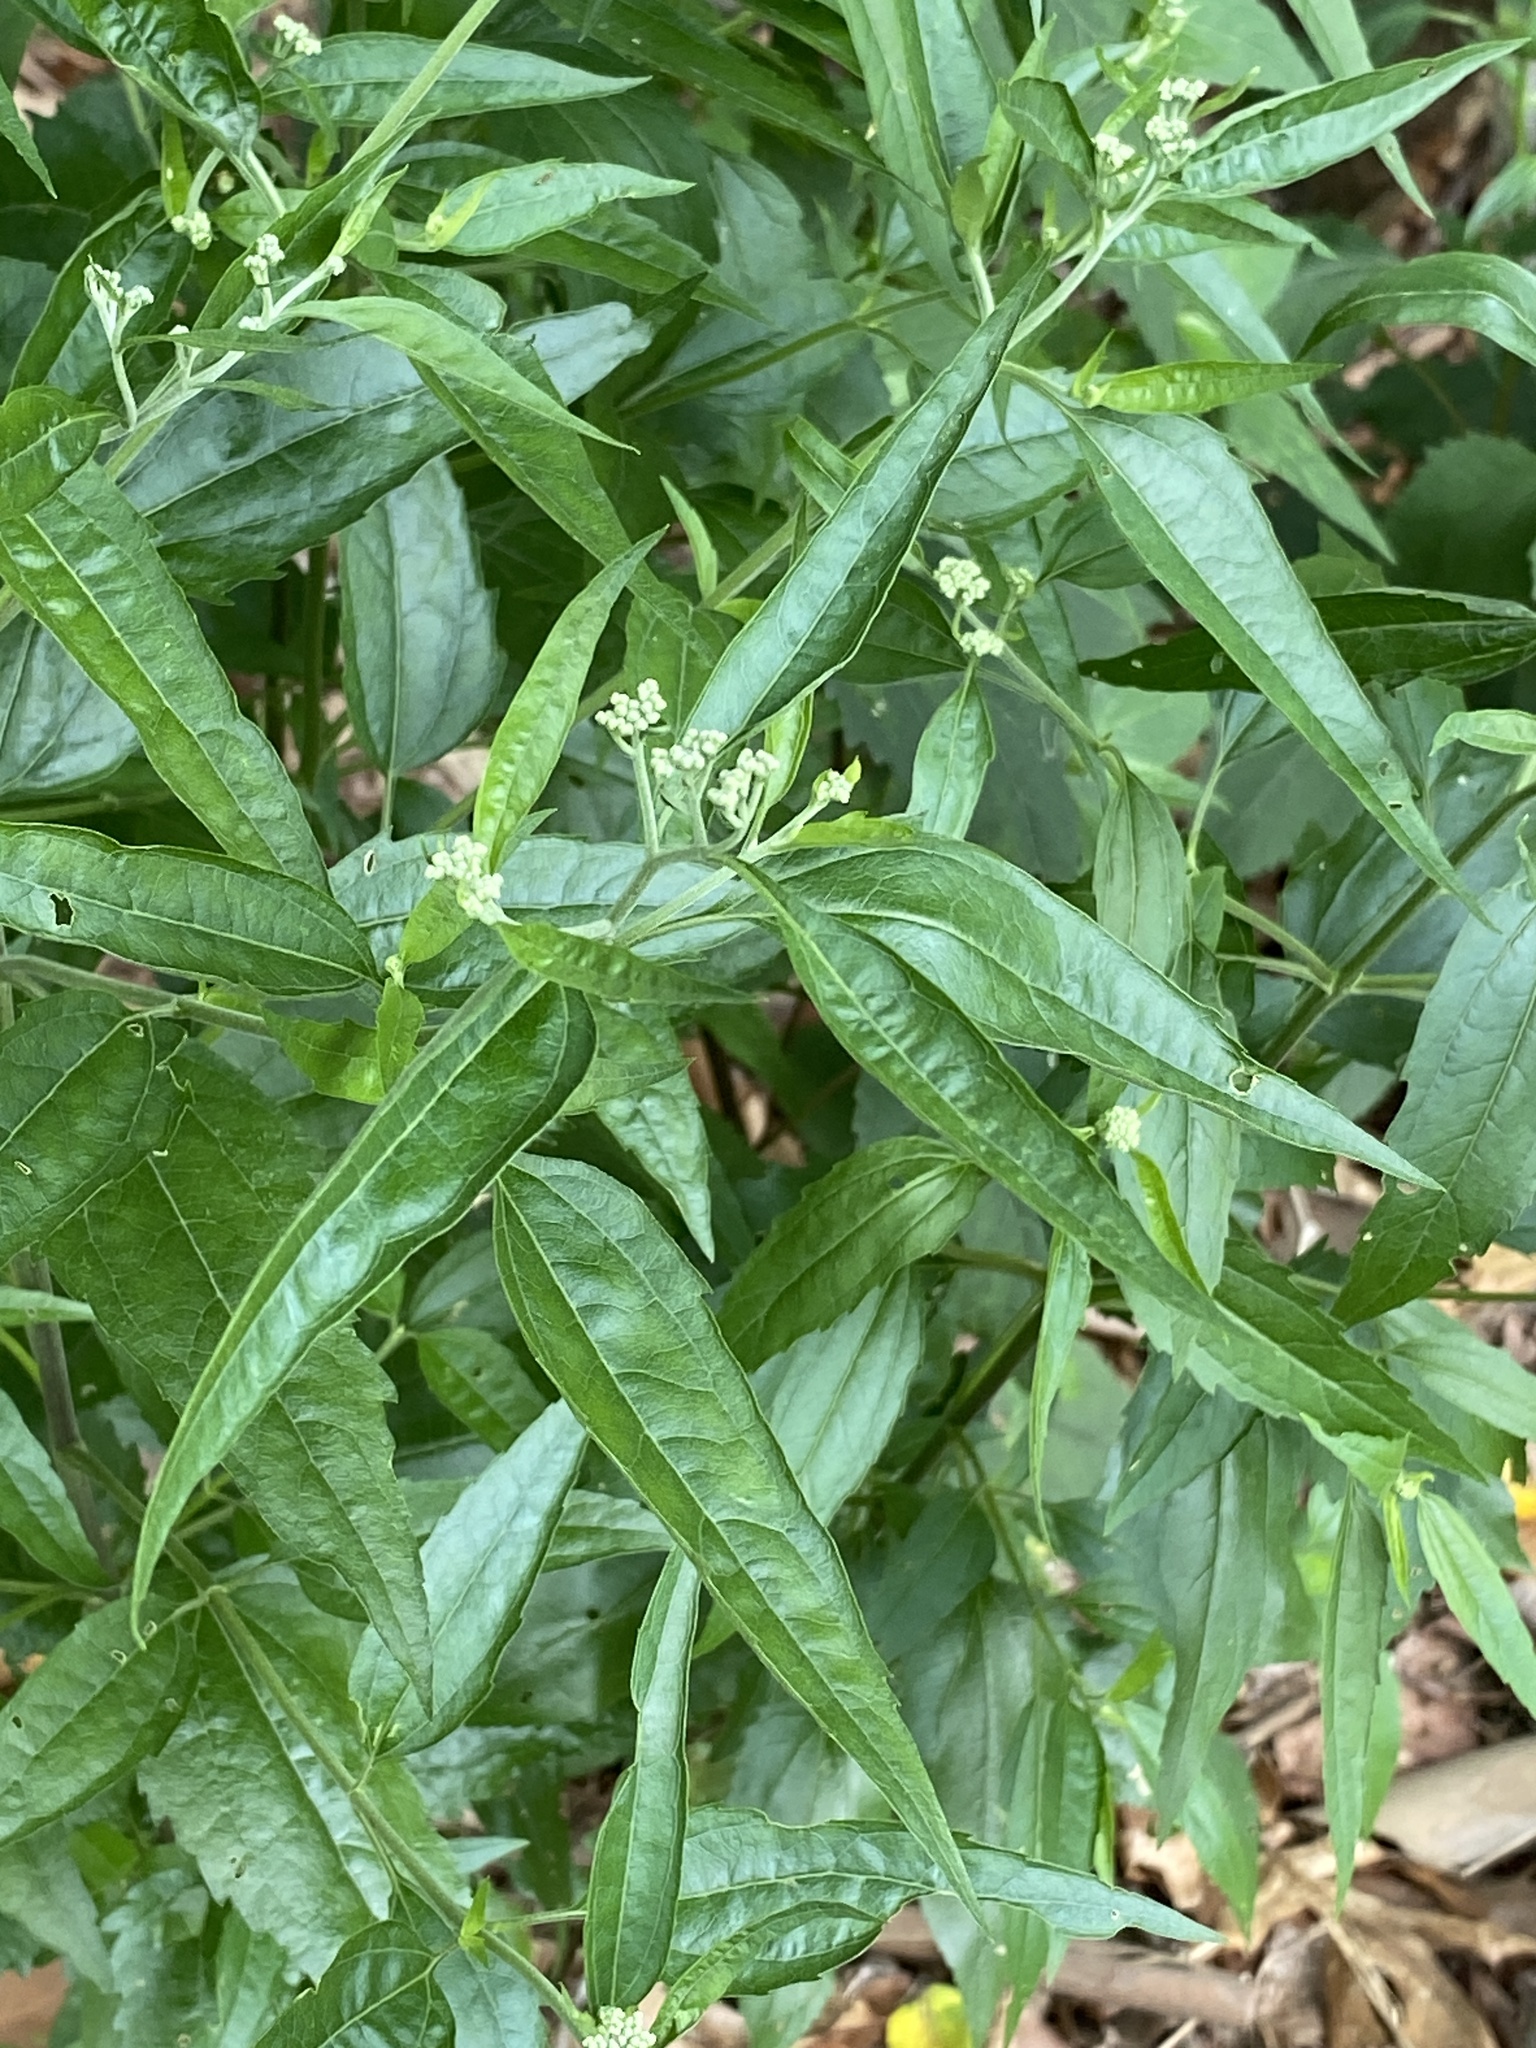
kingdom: Plantae
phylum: Tracheophyta
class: Magnoliopsida
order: Asterales
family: Asteraceae
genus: Eupatorium
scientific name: Eupatorium serotinum
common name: Late boneset
